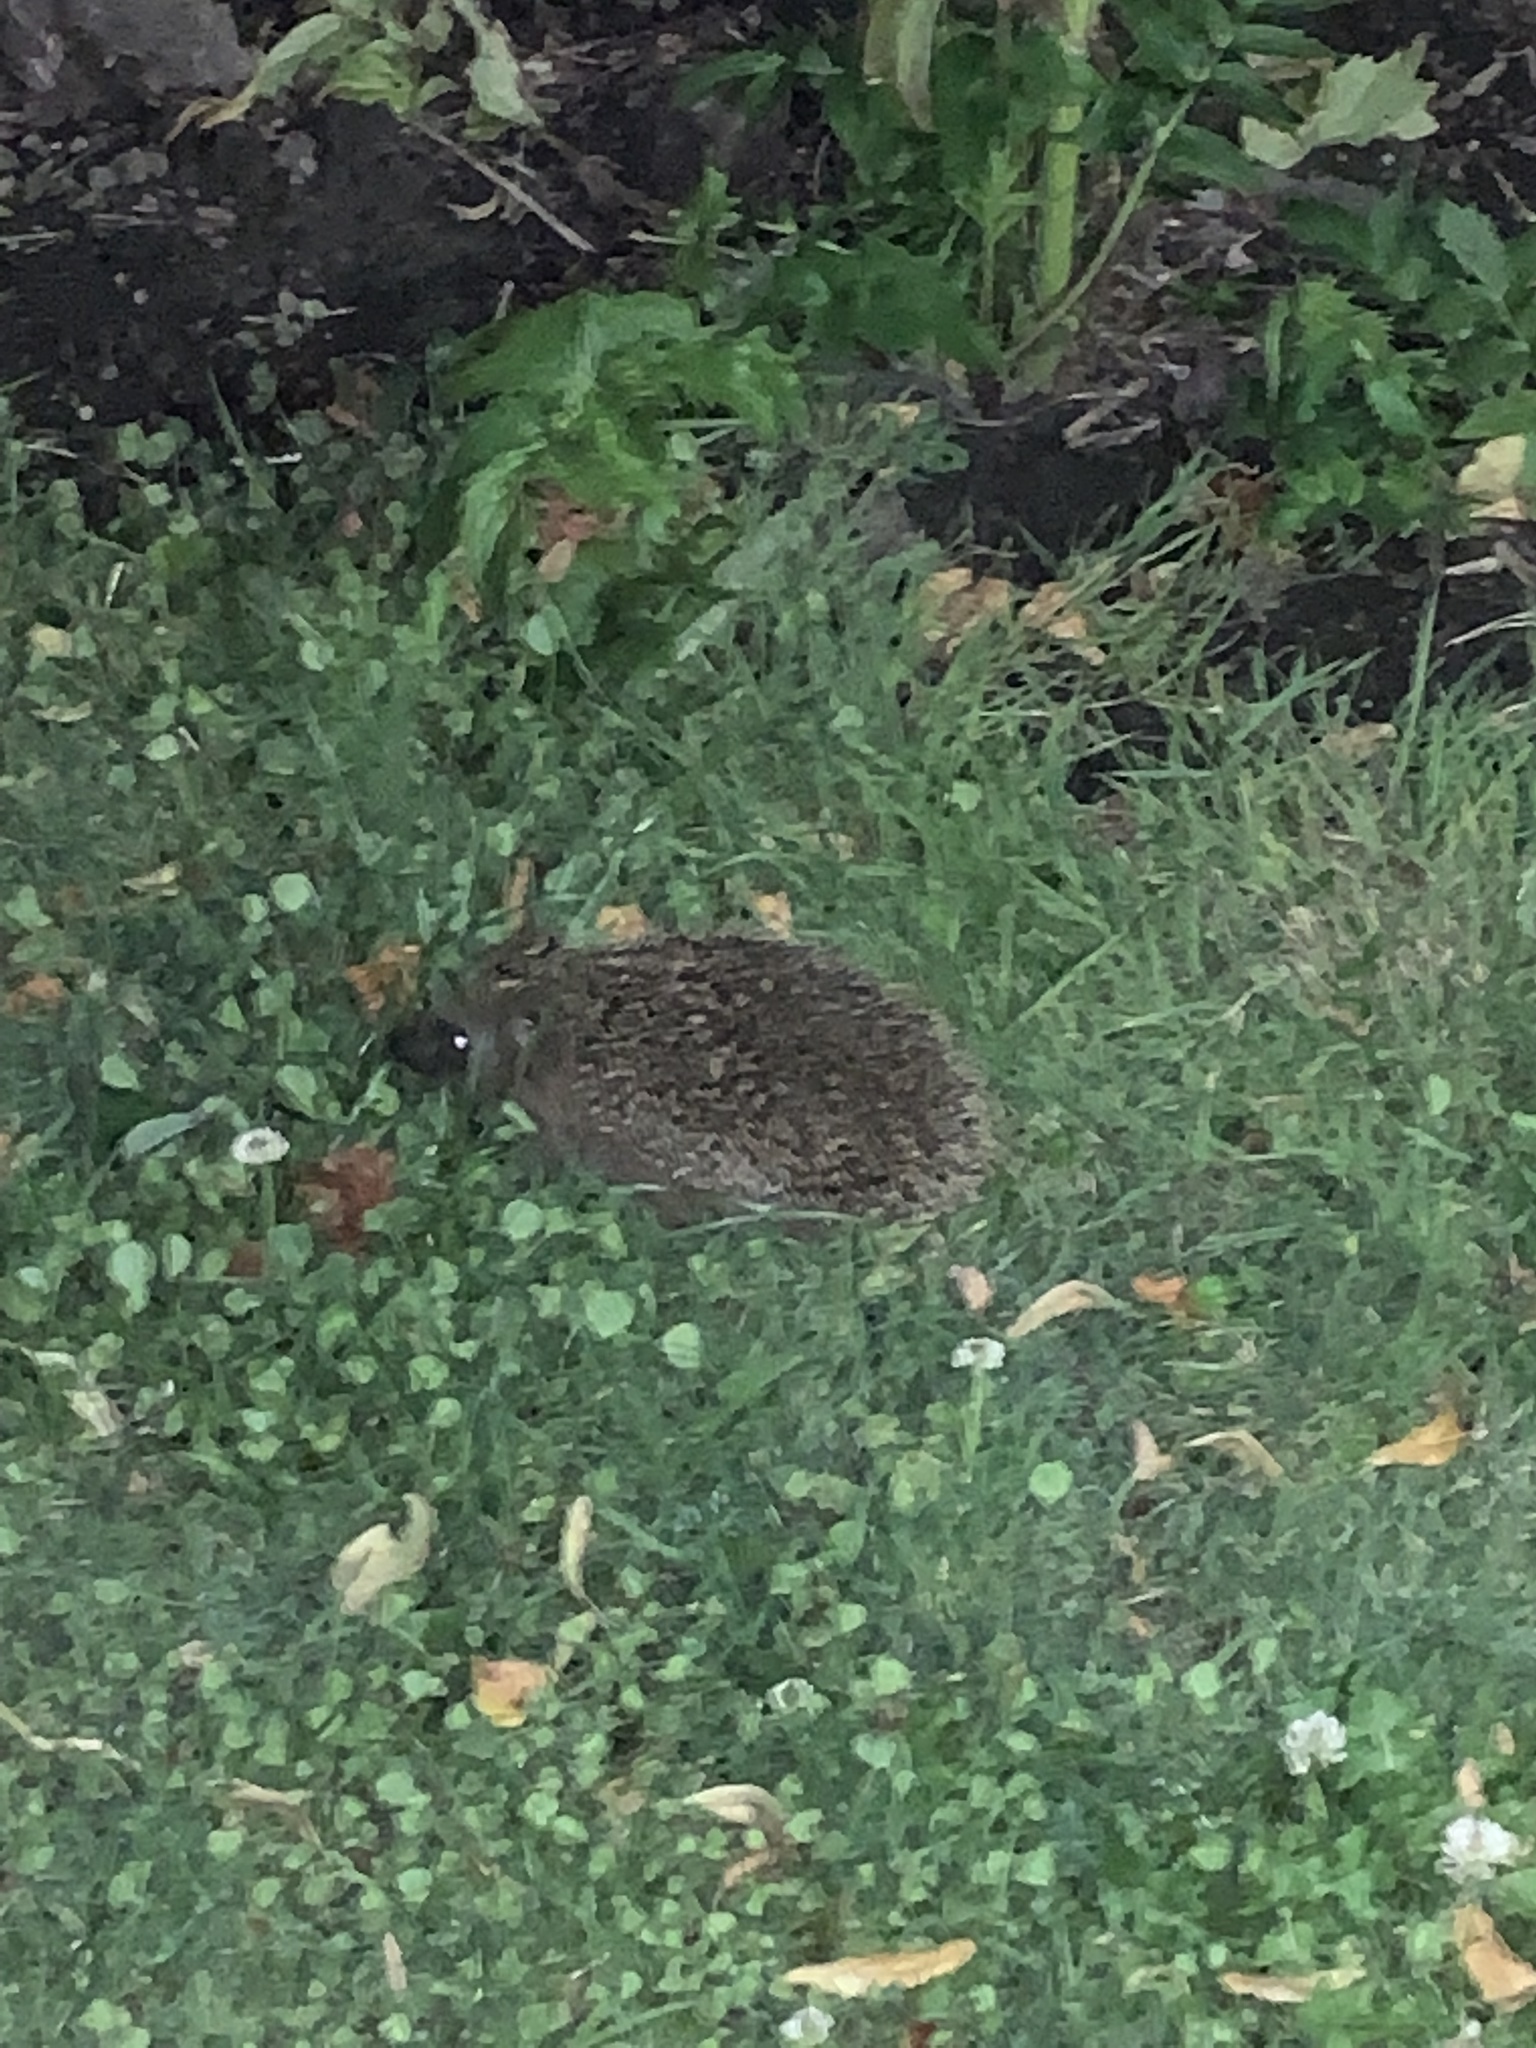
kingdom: Animalia
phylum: Chordata
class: Mammalia
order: Erinaceomorpha
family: Erinaceidae
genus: Erinaceus
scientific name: Erinaceus europaeus
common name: West european hedgehog
